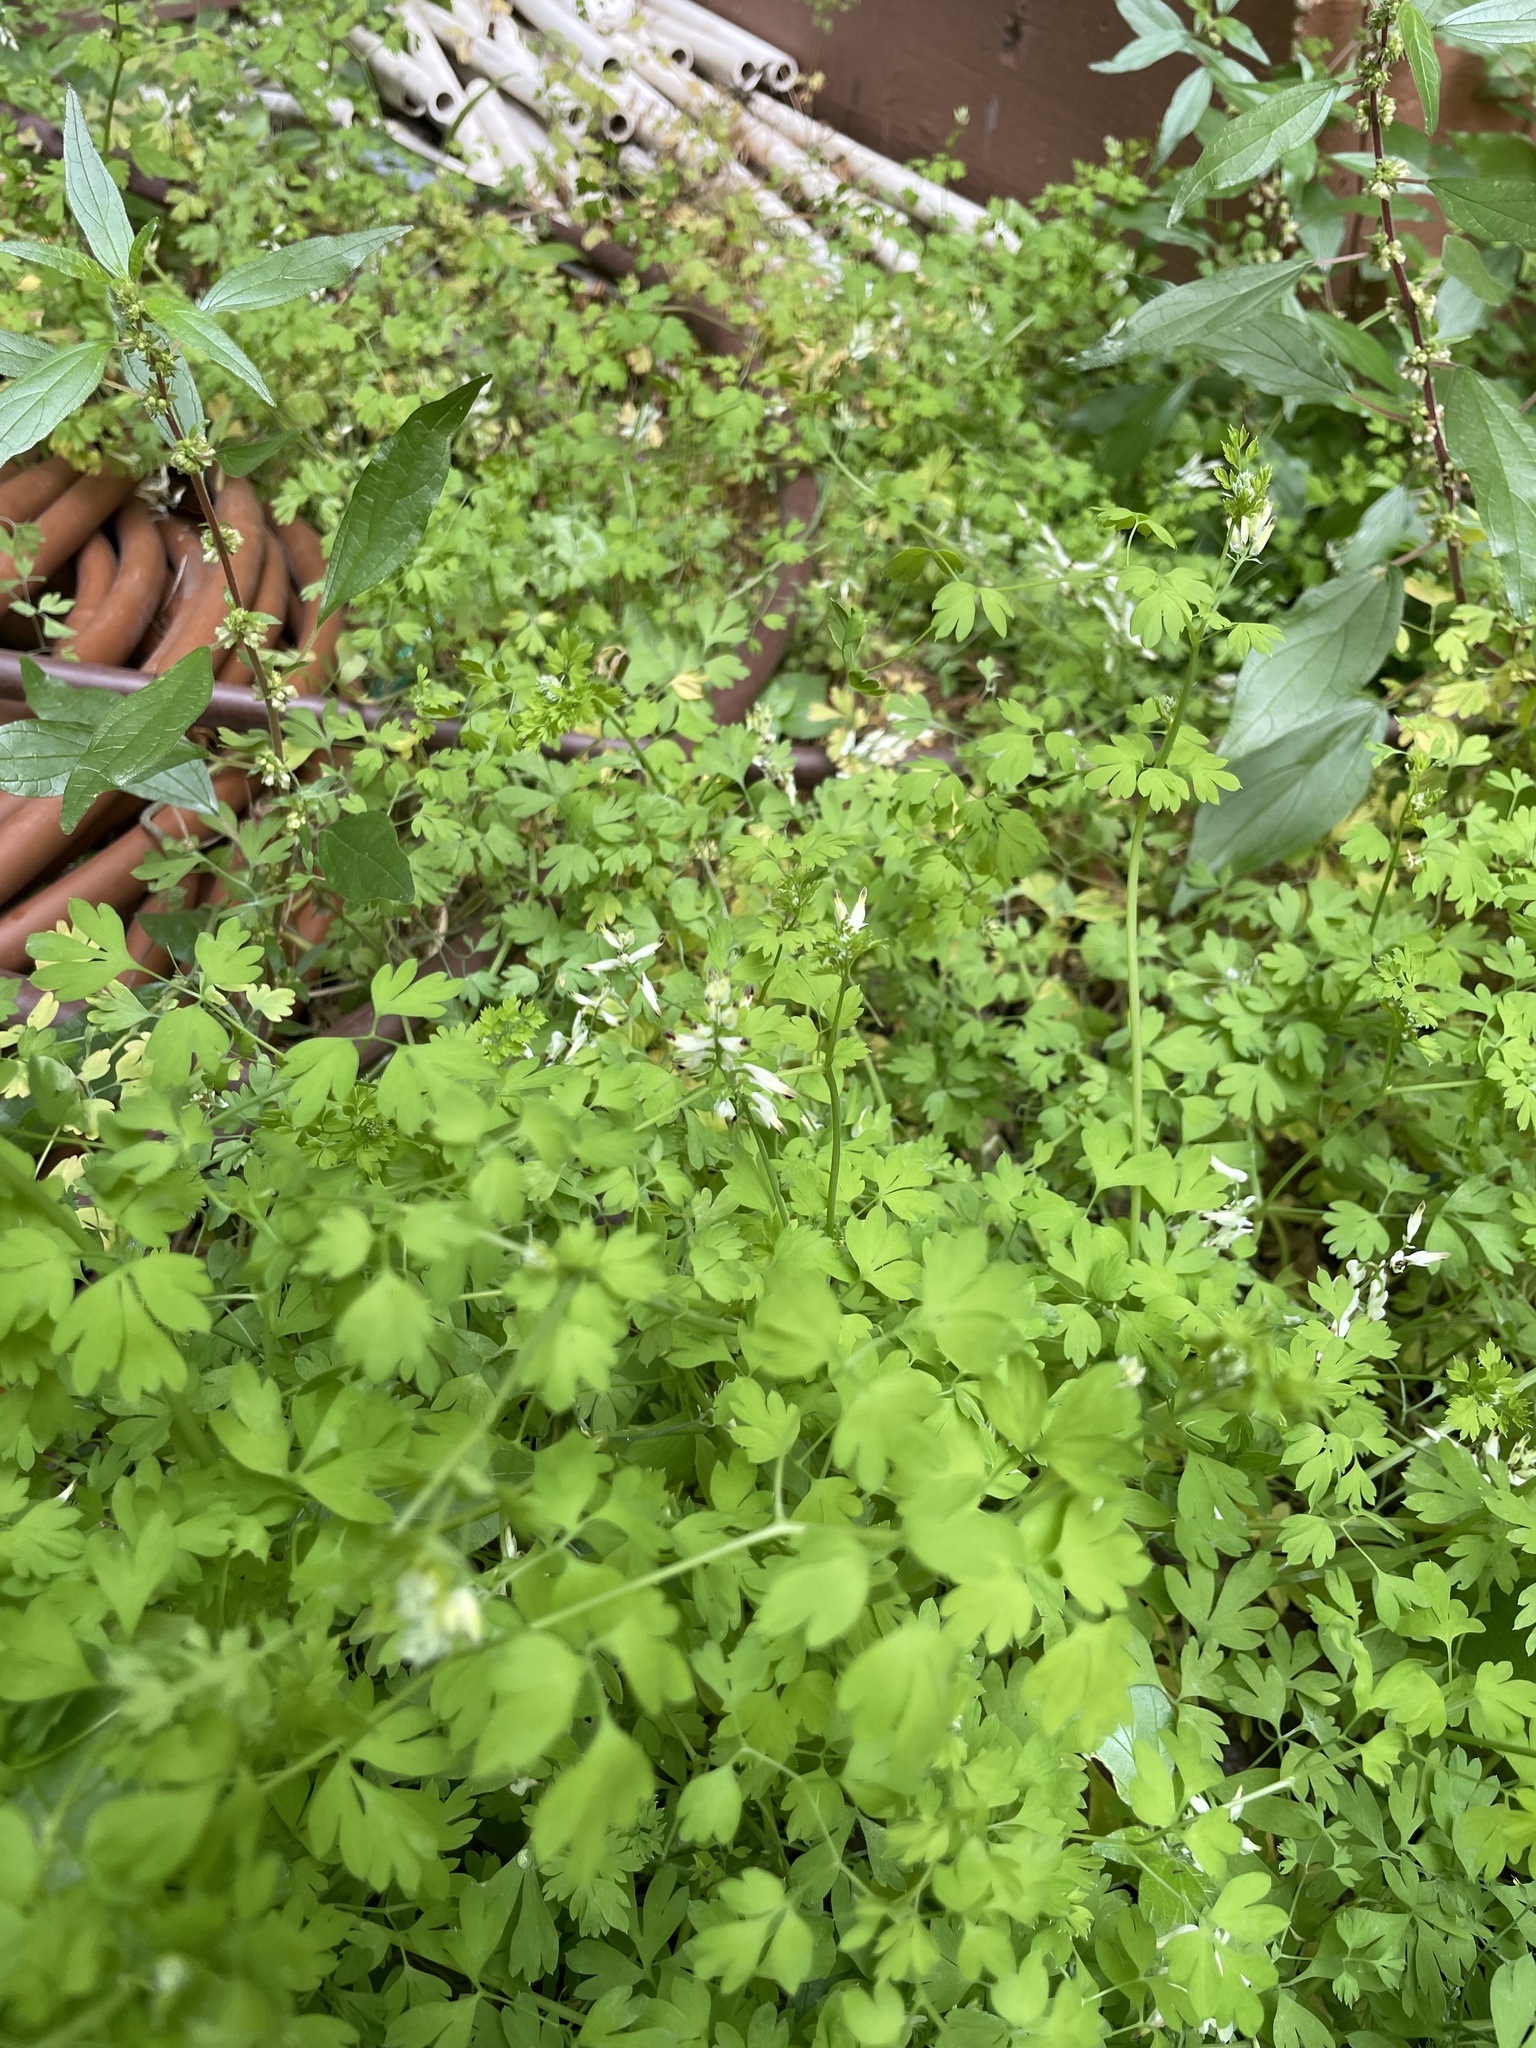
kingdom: Plantae
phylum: Tracheophyta
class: Magnoliopsida
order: Ranunculales
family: Papaveraceae
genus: Fumaria
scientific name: Fumaria capreolata
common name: White ramping-fumitory
